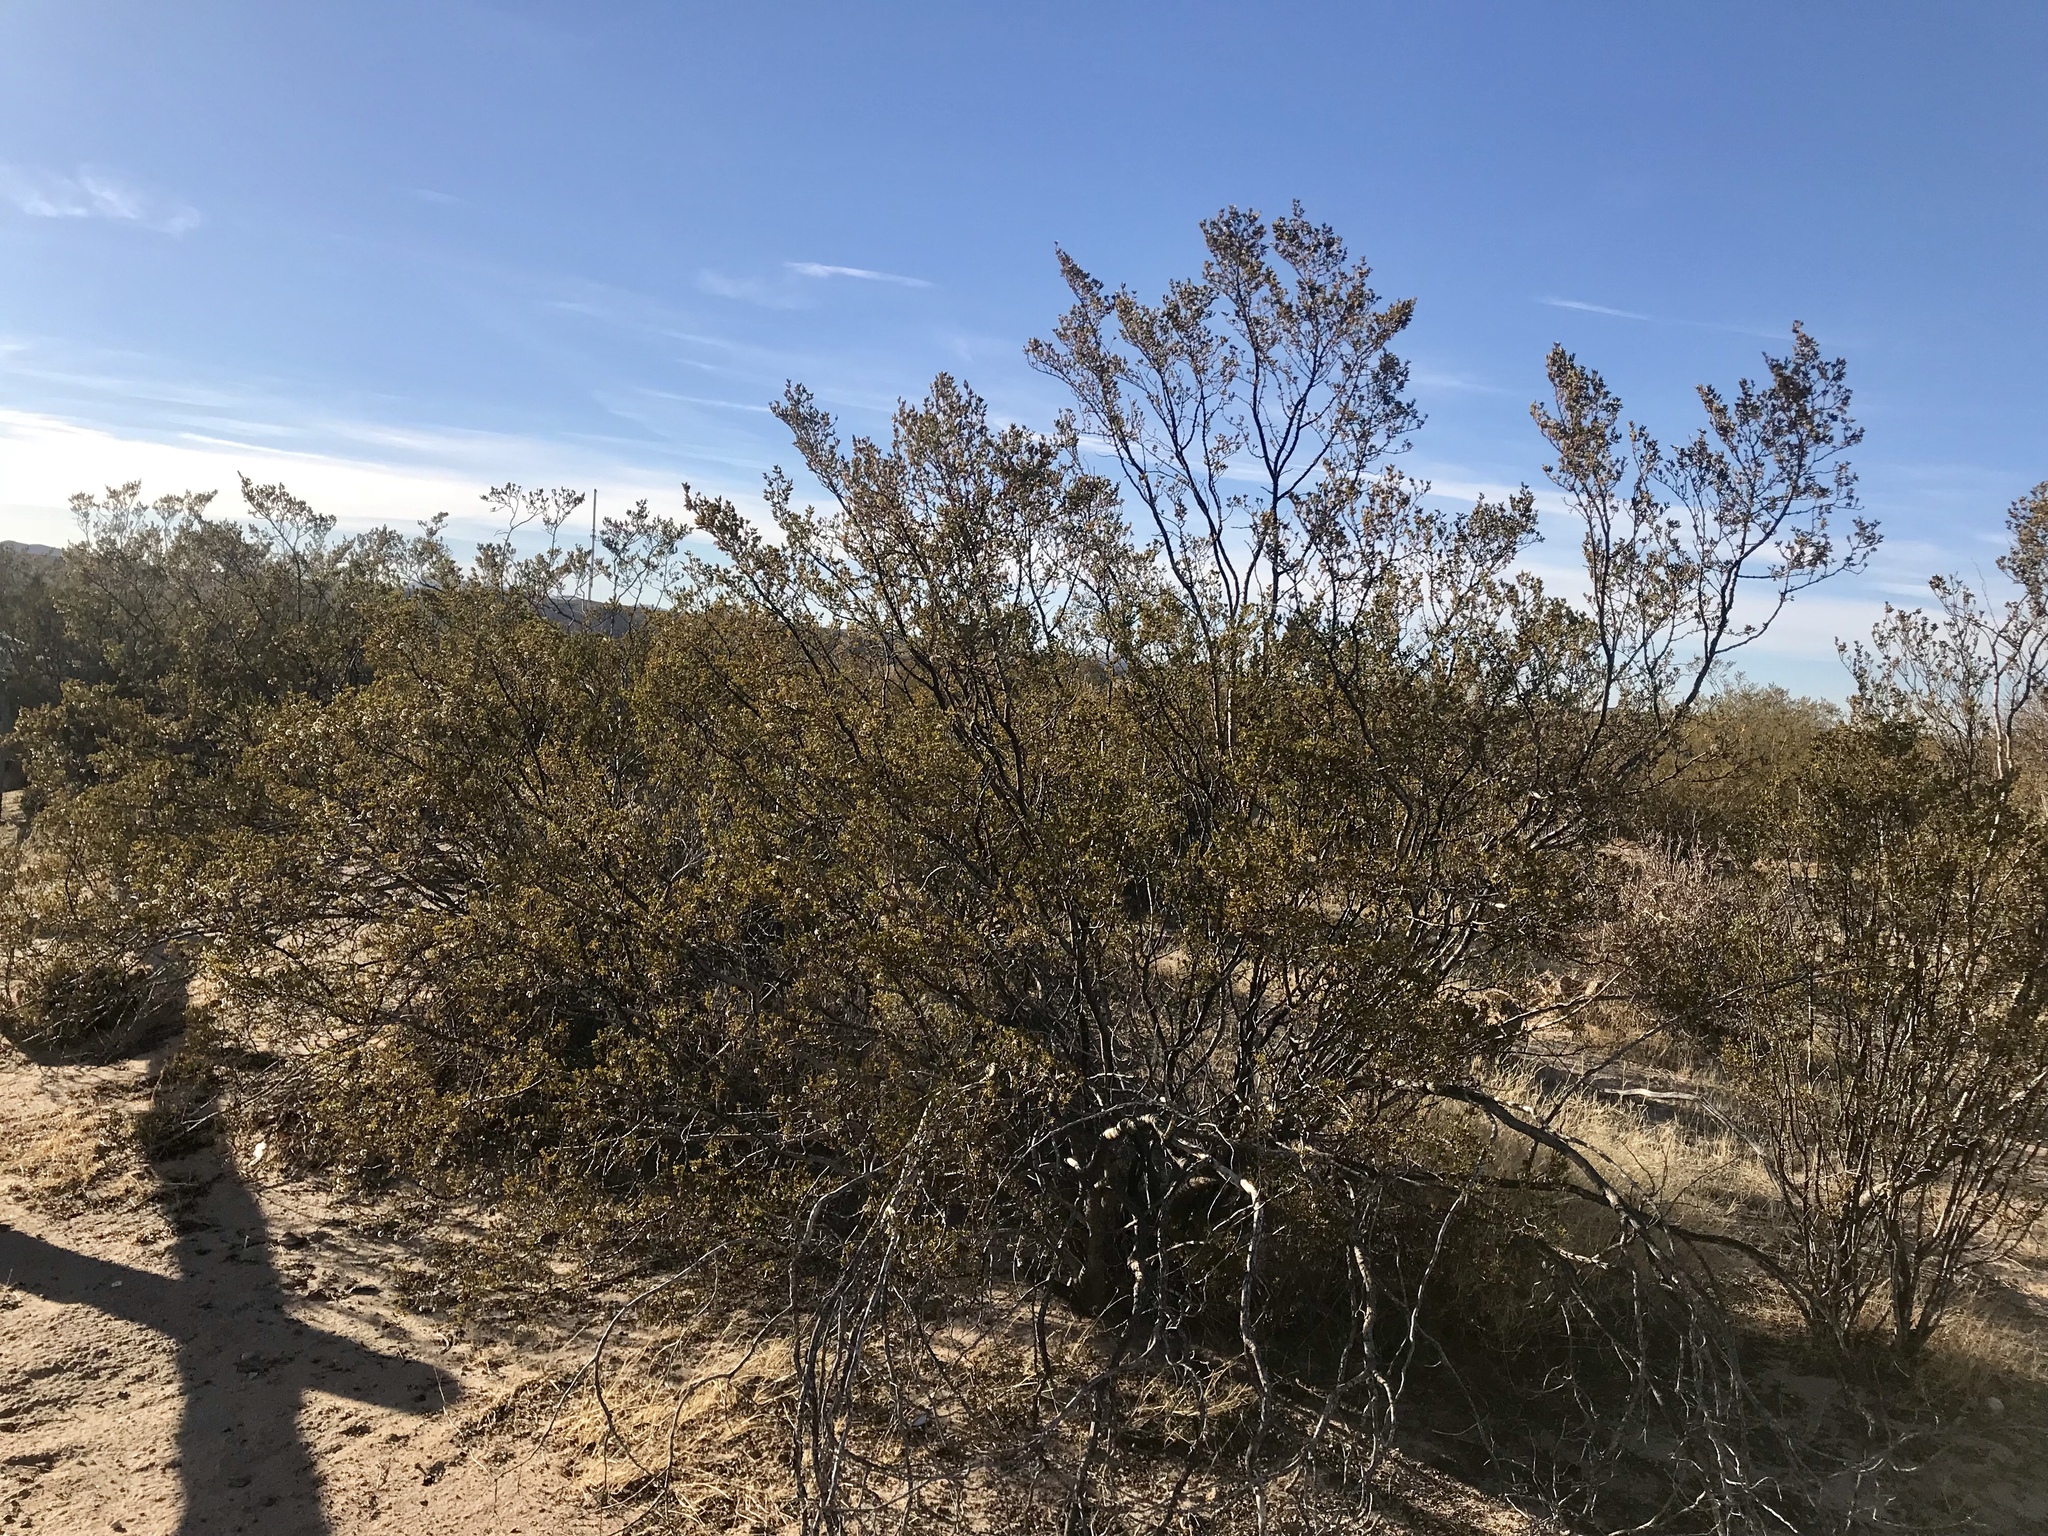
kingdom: Plantae
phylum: Tracheophyta
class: Magnoliopsida
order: Zygophyllales
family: Zygophyllaceae
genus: Larrea
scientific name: Larrea tridentata
